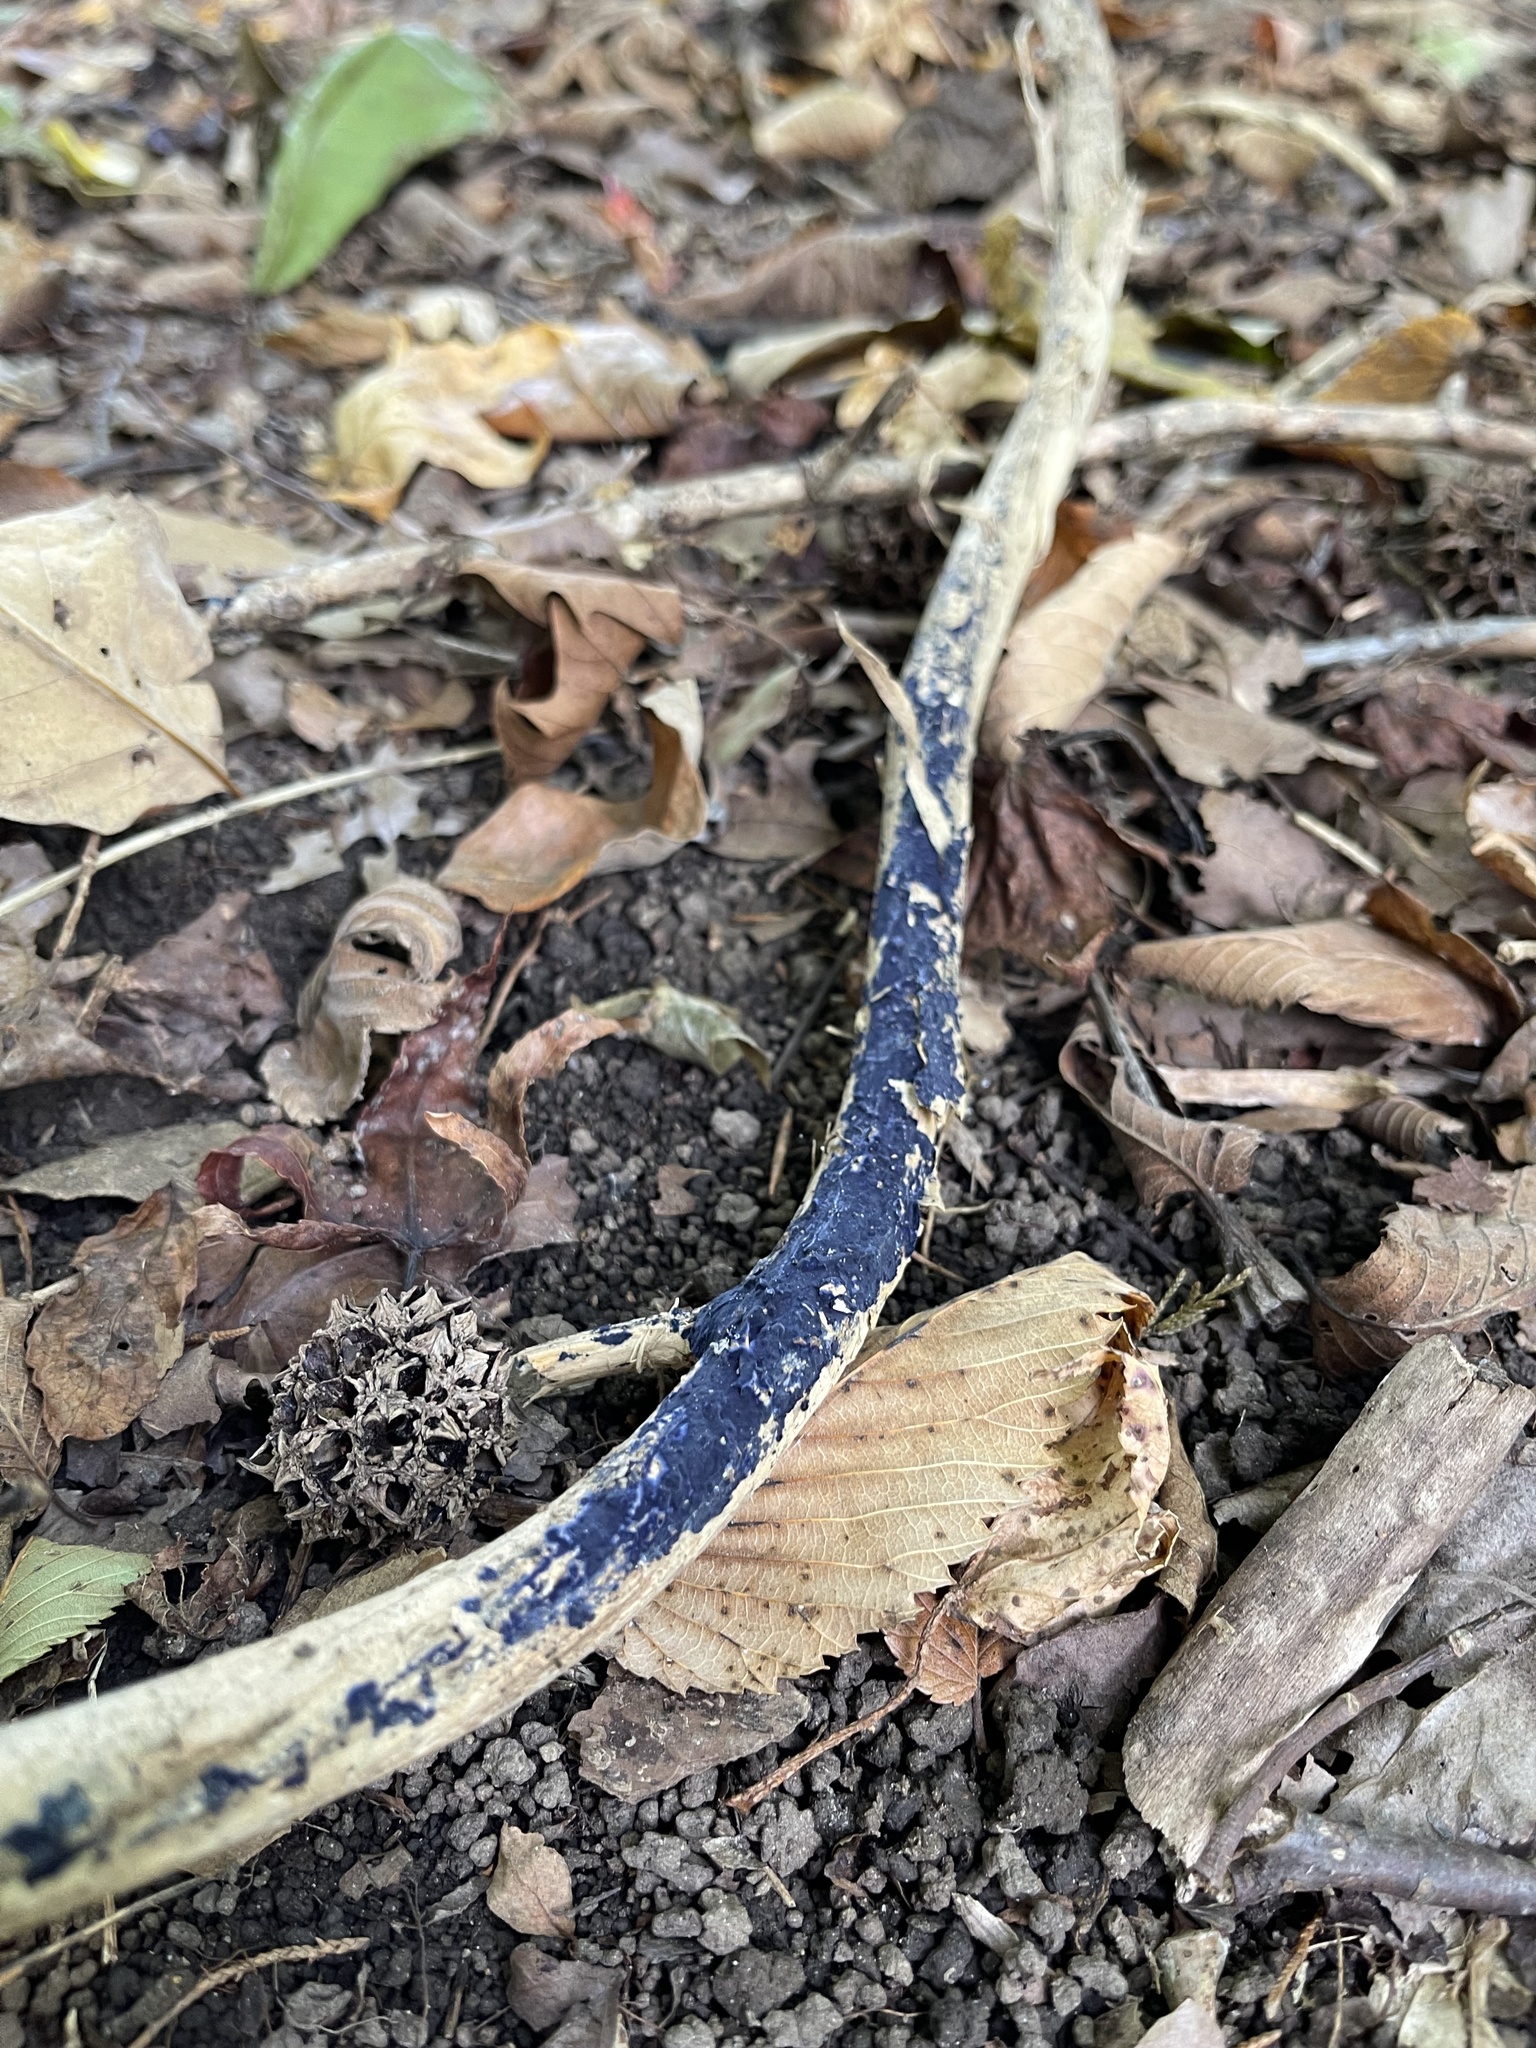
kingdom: Fungi
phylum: Basidiomycota
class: Agaricomycetes
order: Polyporales
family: Phanerochaetaceae
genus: Terana
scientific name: Terana coerulea
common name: Cobalt crust
